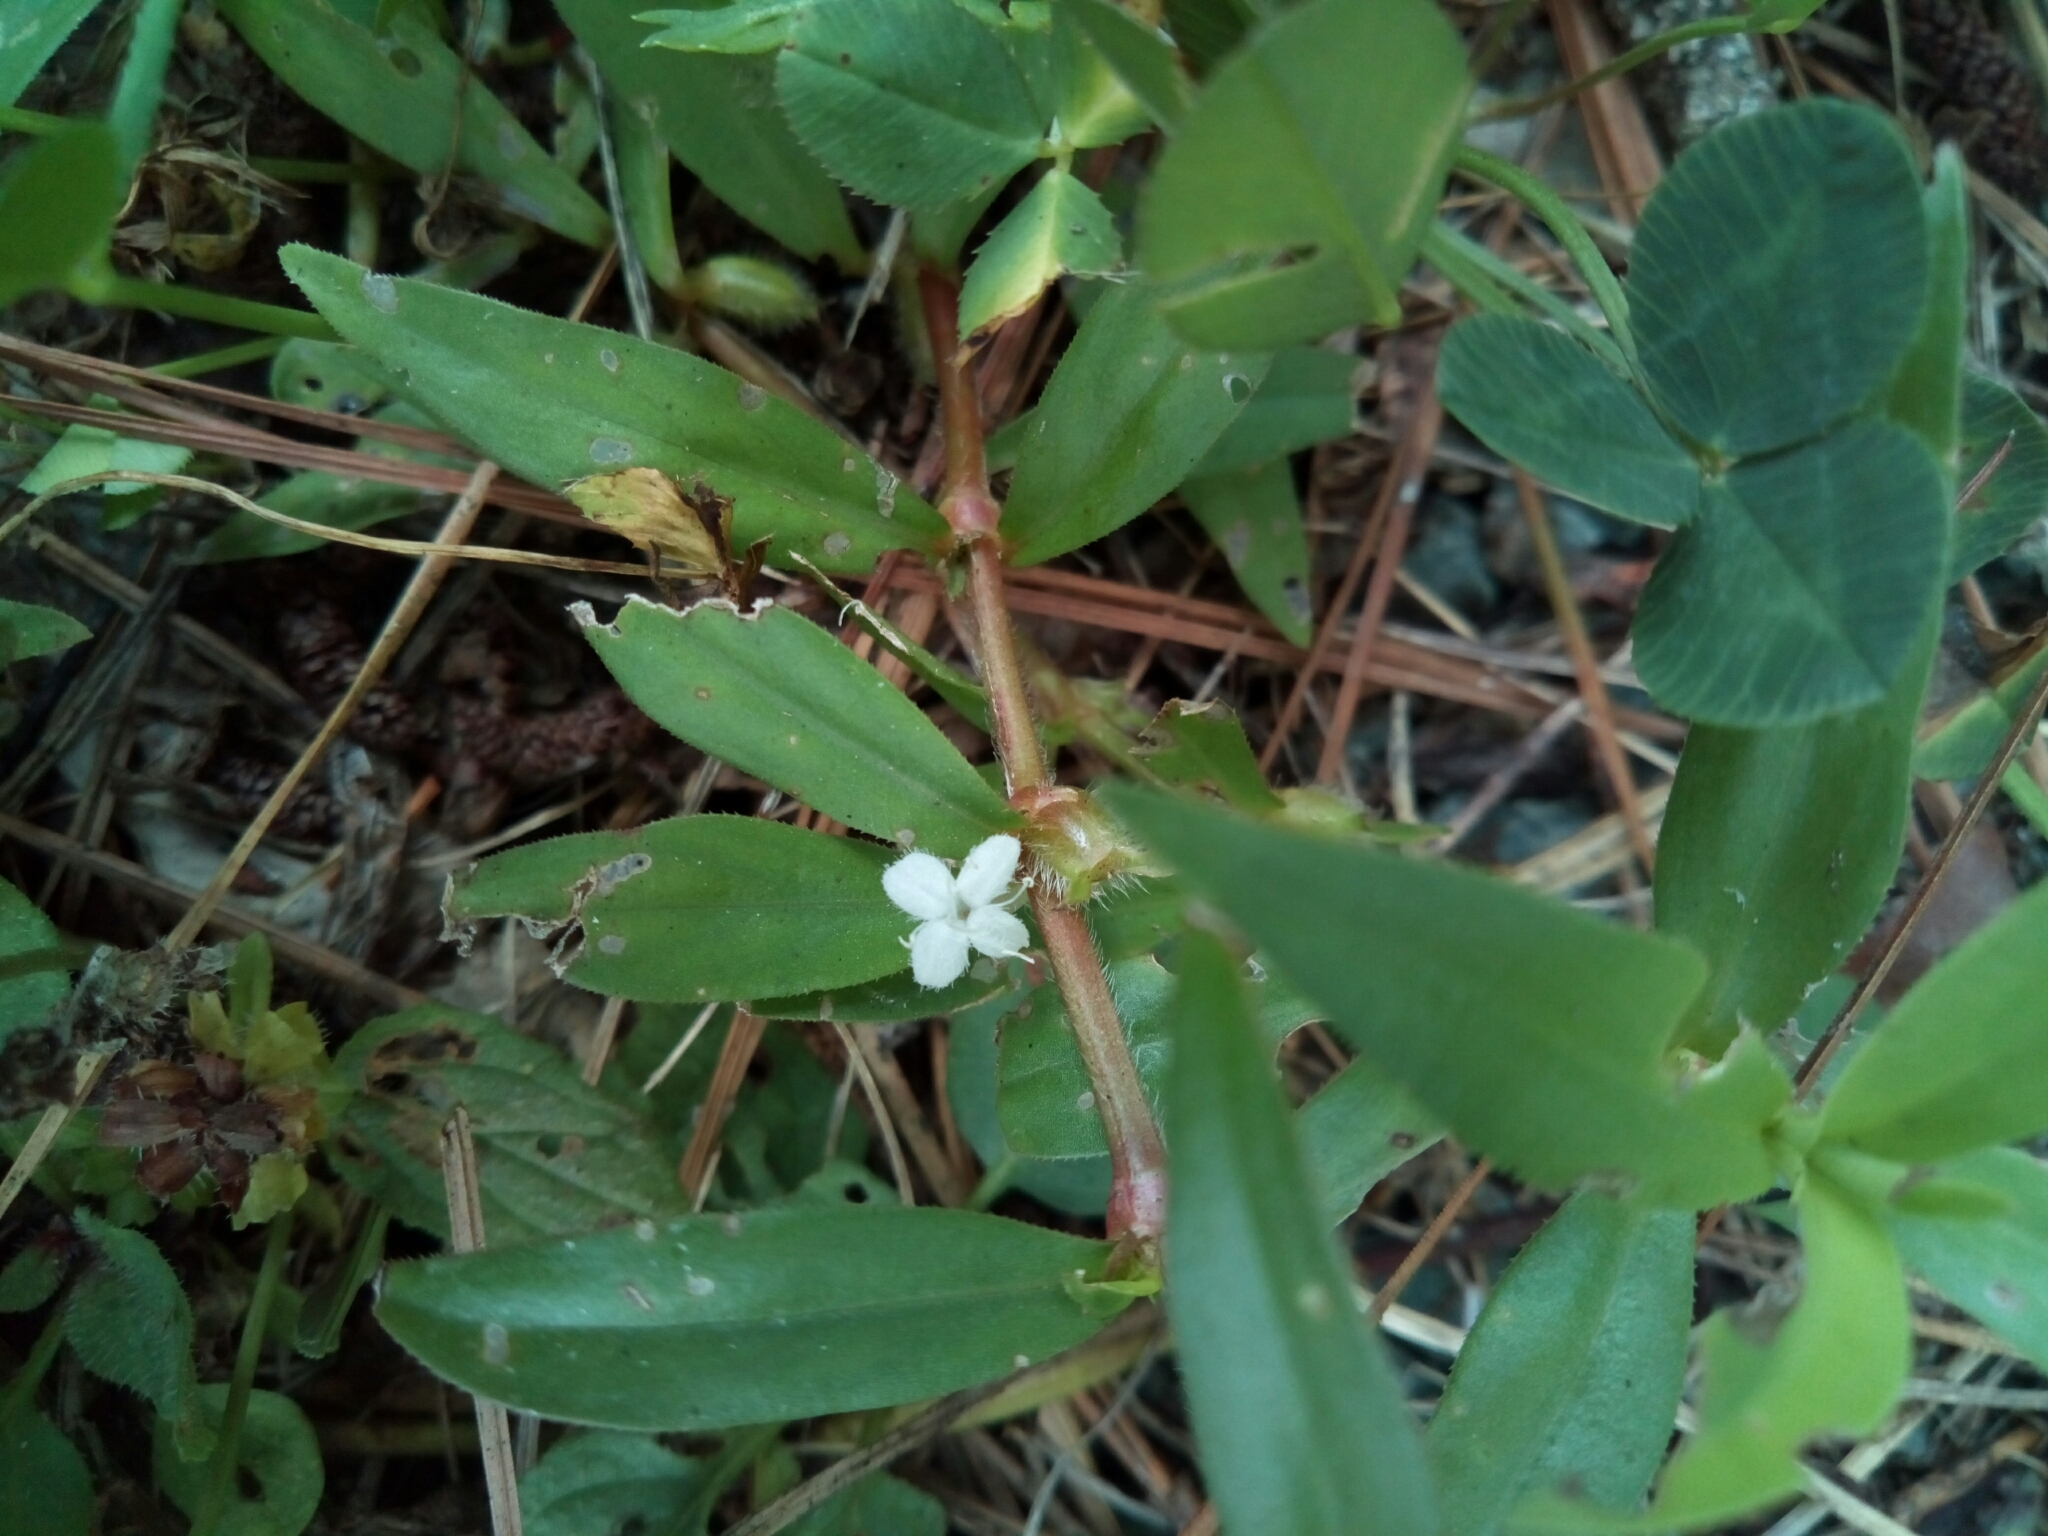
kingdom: Plantae
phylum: Tracheophyta
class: Magnoliopsida
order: Gentianales
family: Rubiaceae
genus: Diodia
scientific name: Diodia virginiana
